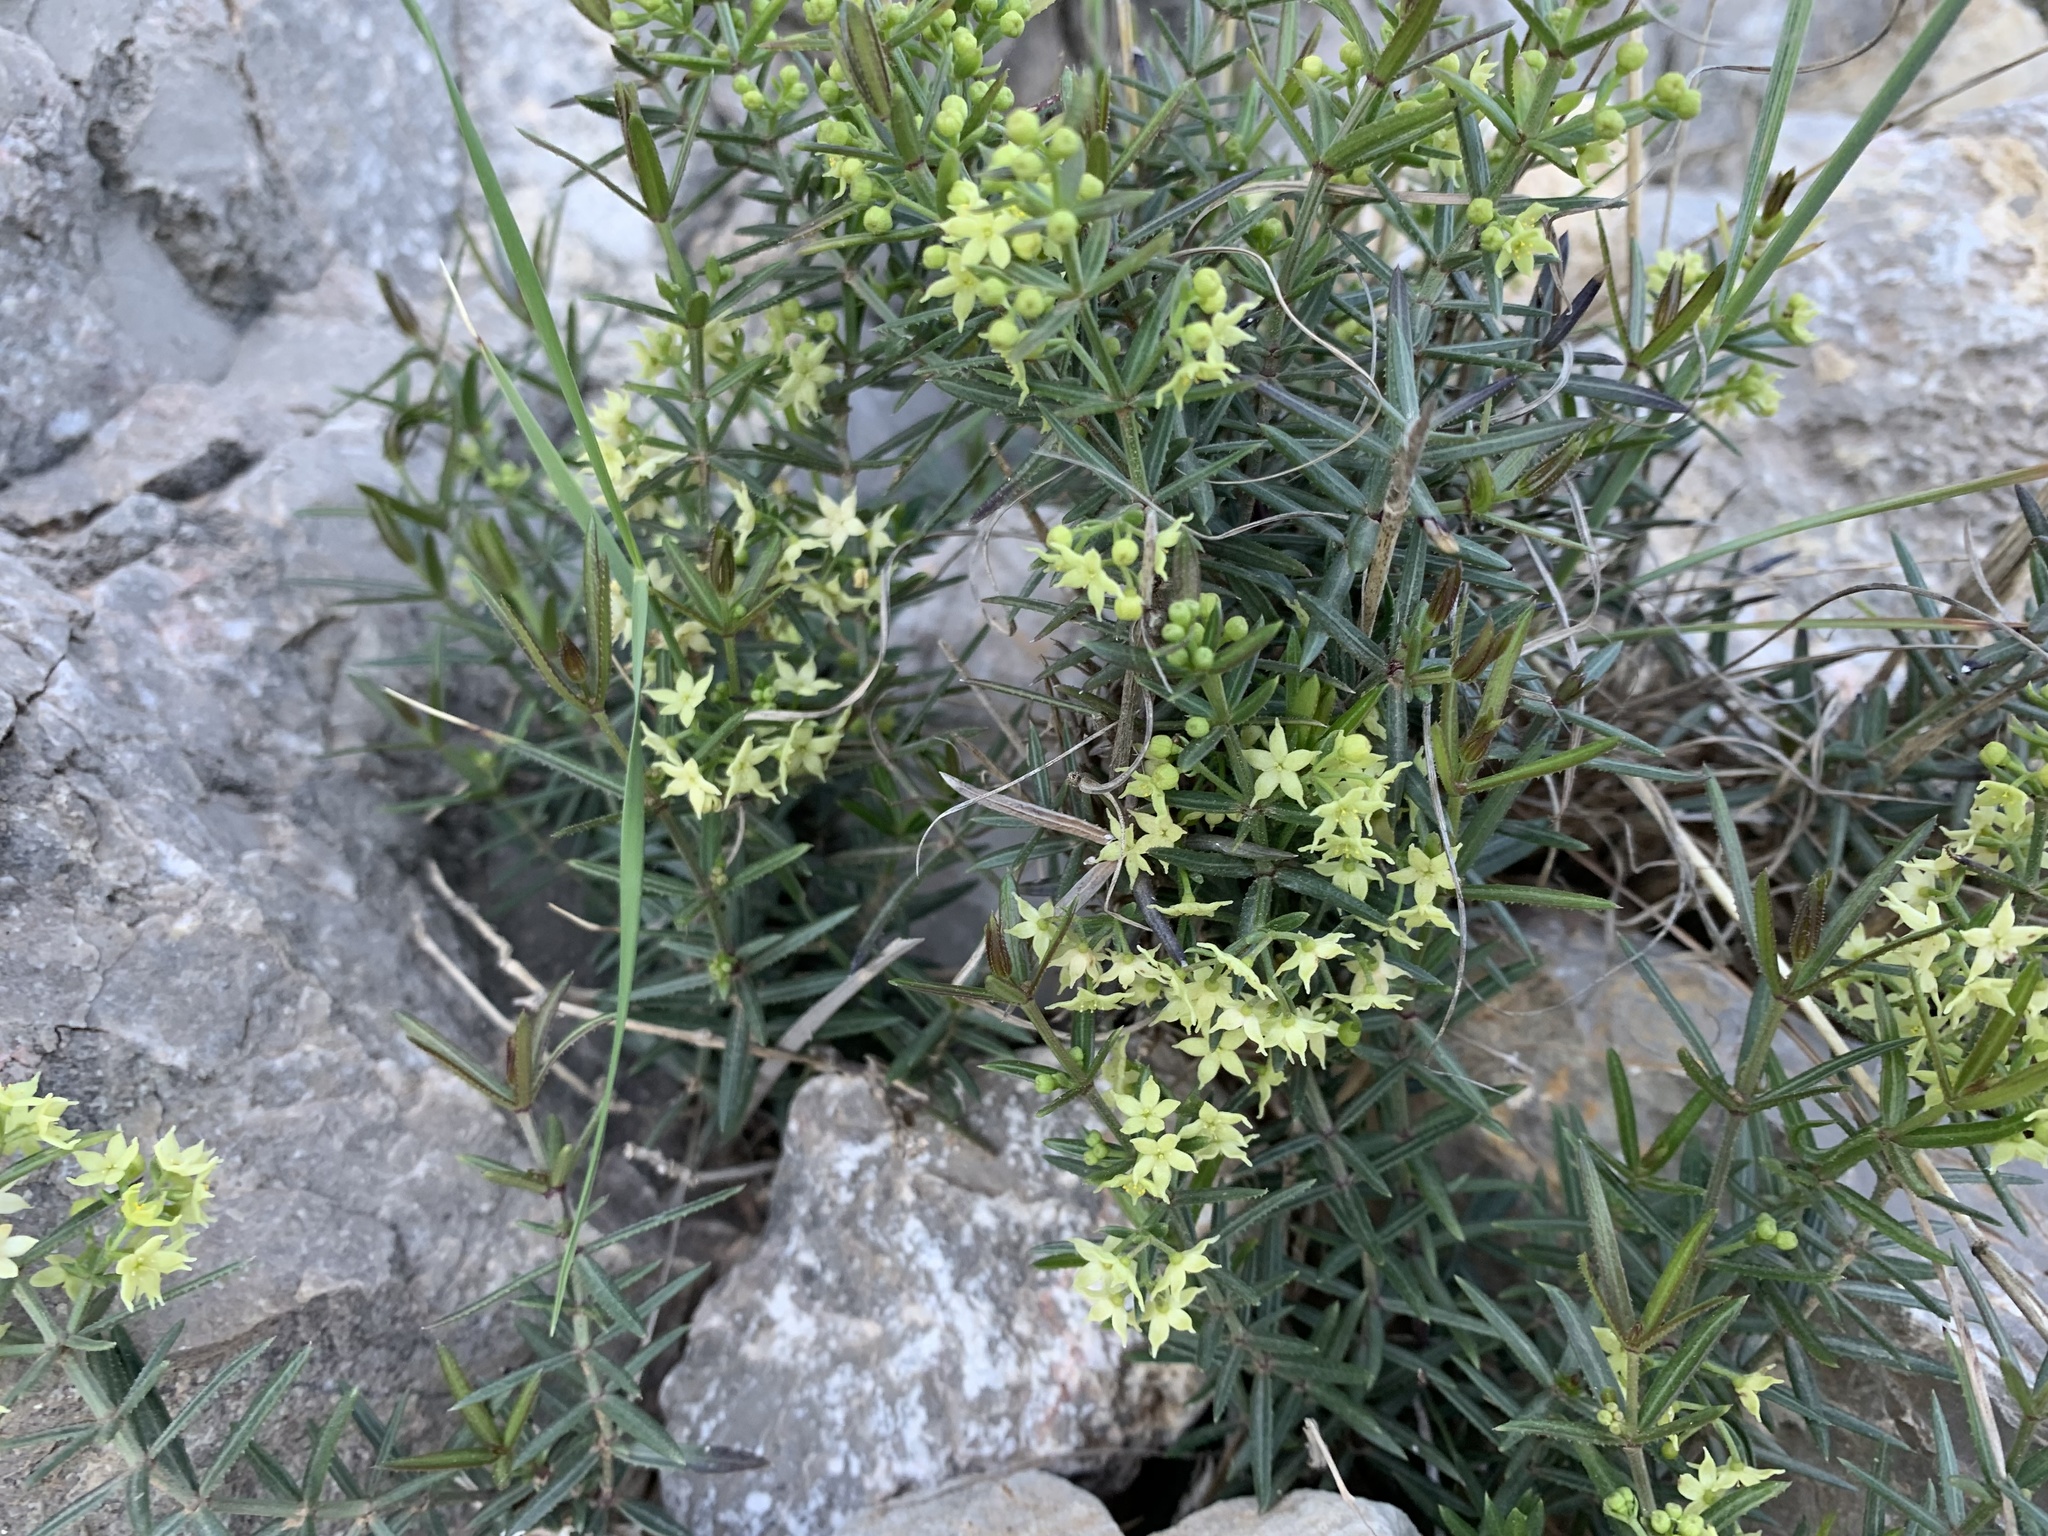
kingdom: Plantae
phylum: Tracheophyta
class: Magnoliopsida
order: Gentianales
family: Rubiaceae
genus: Rubia
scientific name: Rubia peregrina
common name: Wild madder
